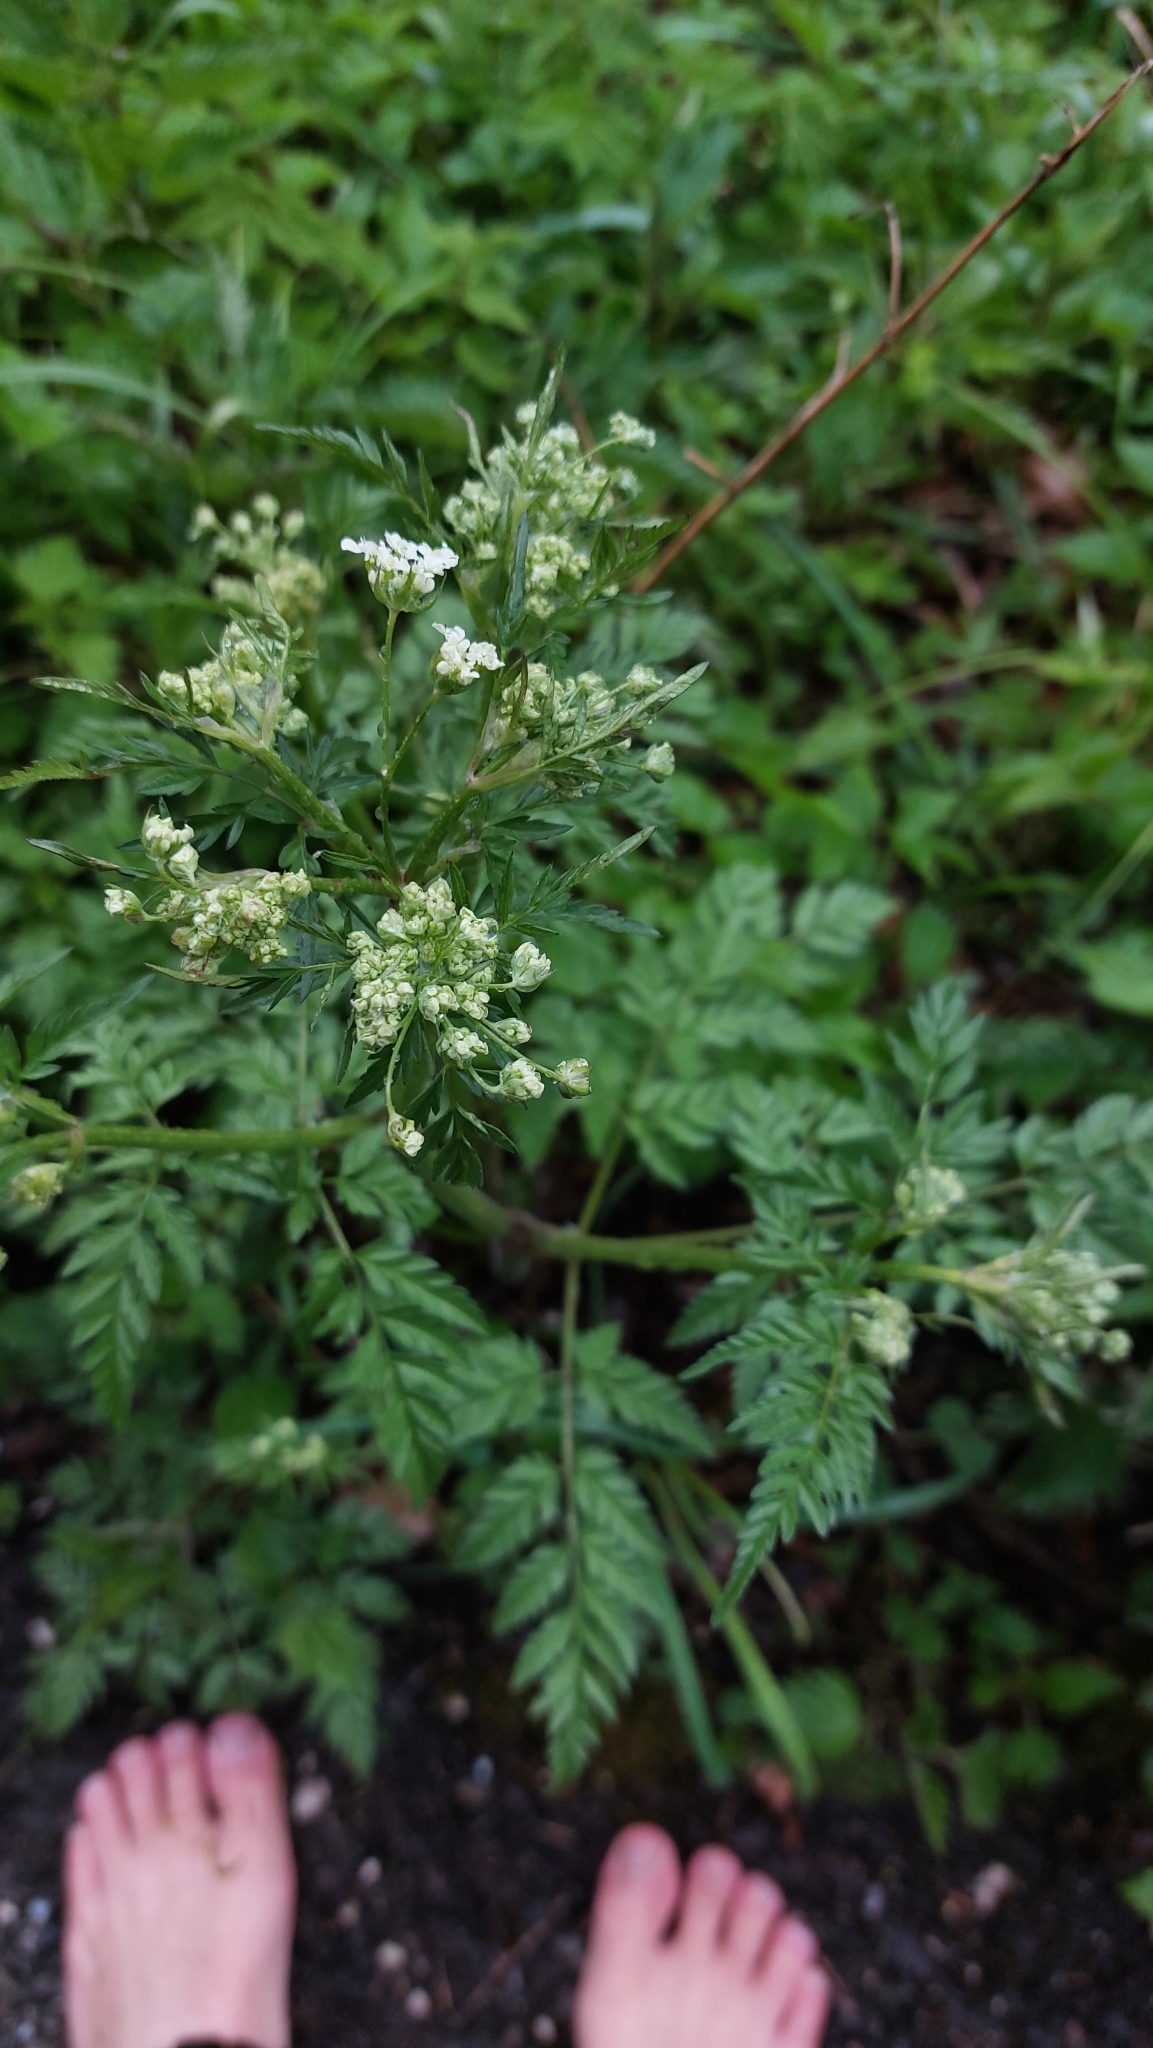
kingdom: Plantae
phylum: Tracheophyta
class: Magnoliopsida
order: Apiales
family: Apiaceae
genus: Anthriscus
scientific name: Anthriscus sylvestris
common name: Cow parsley
